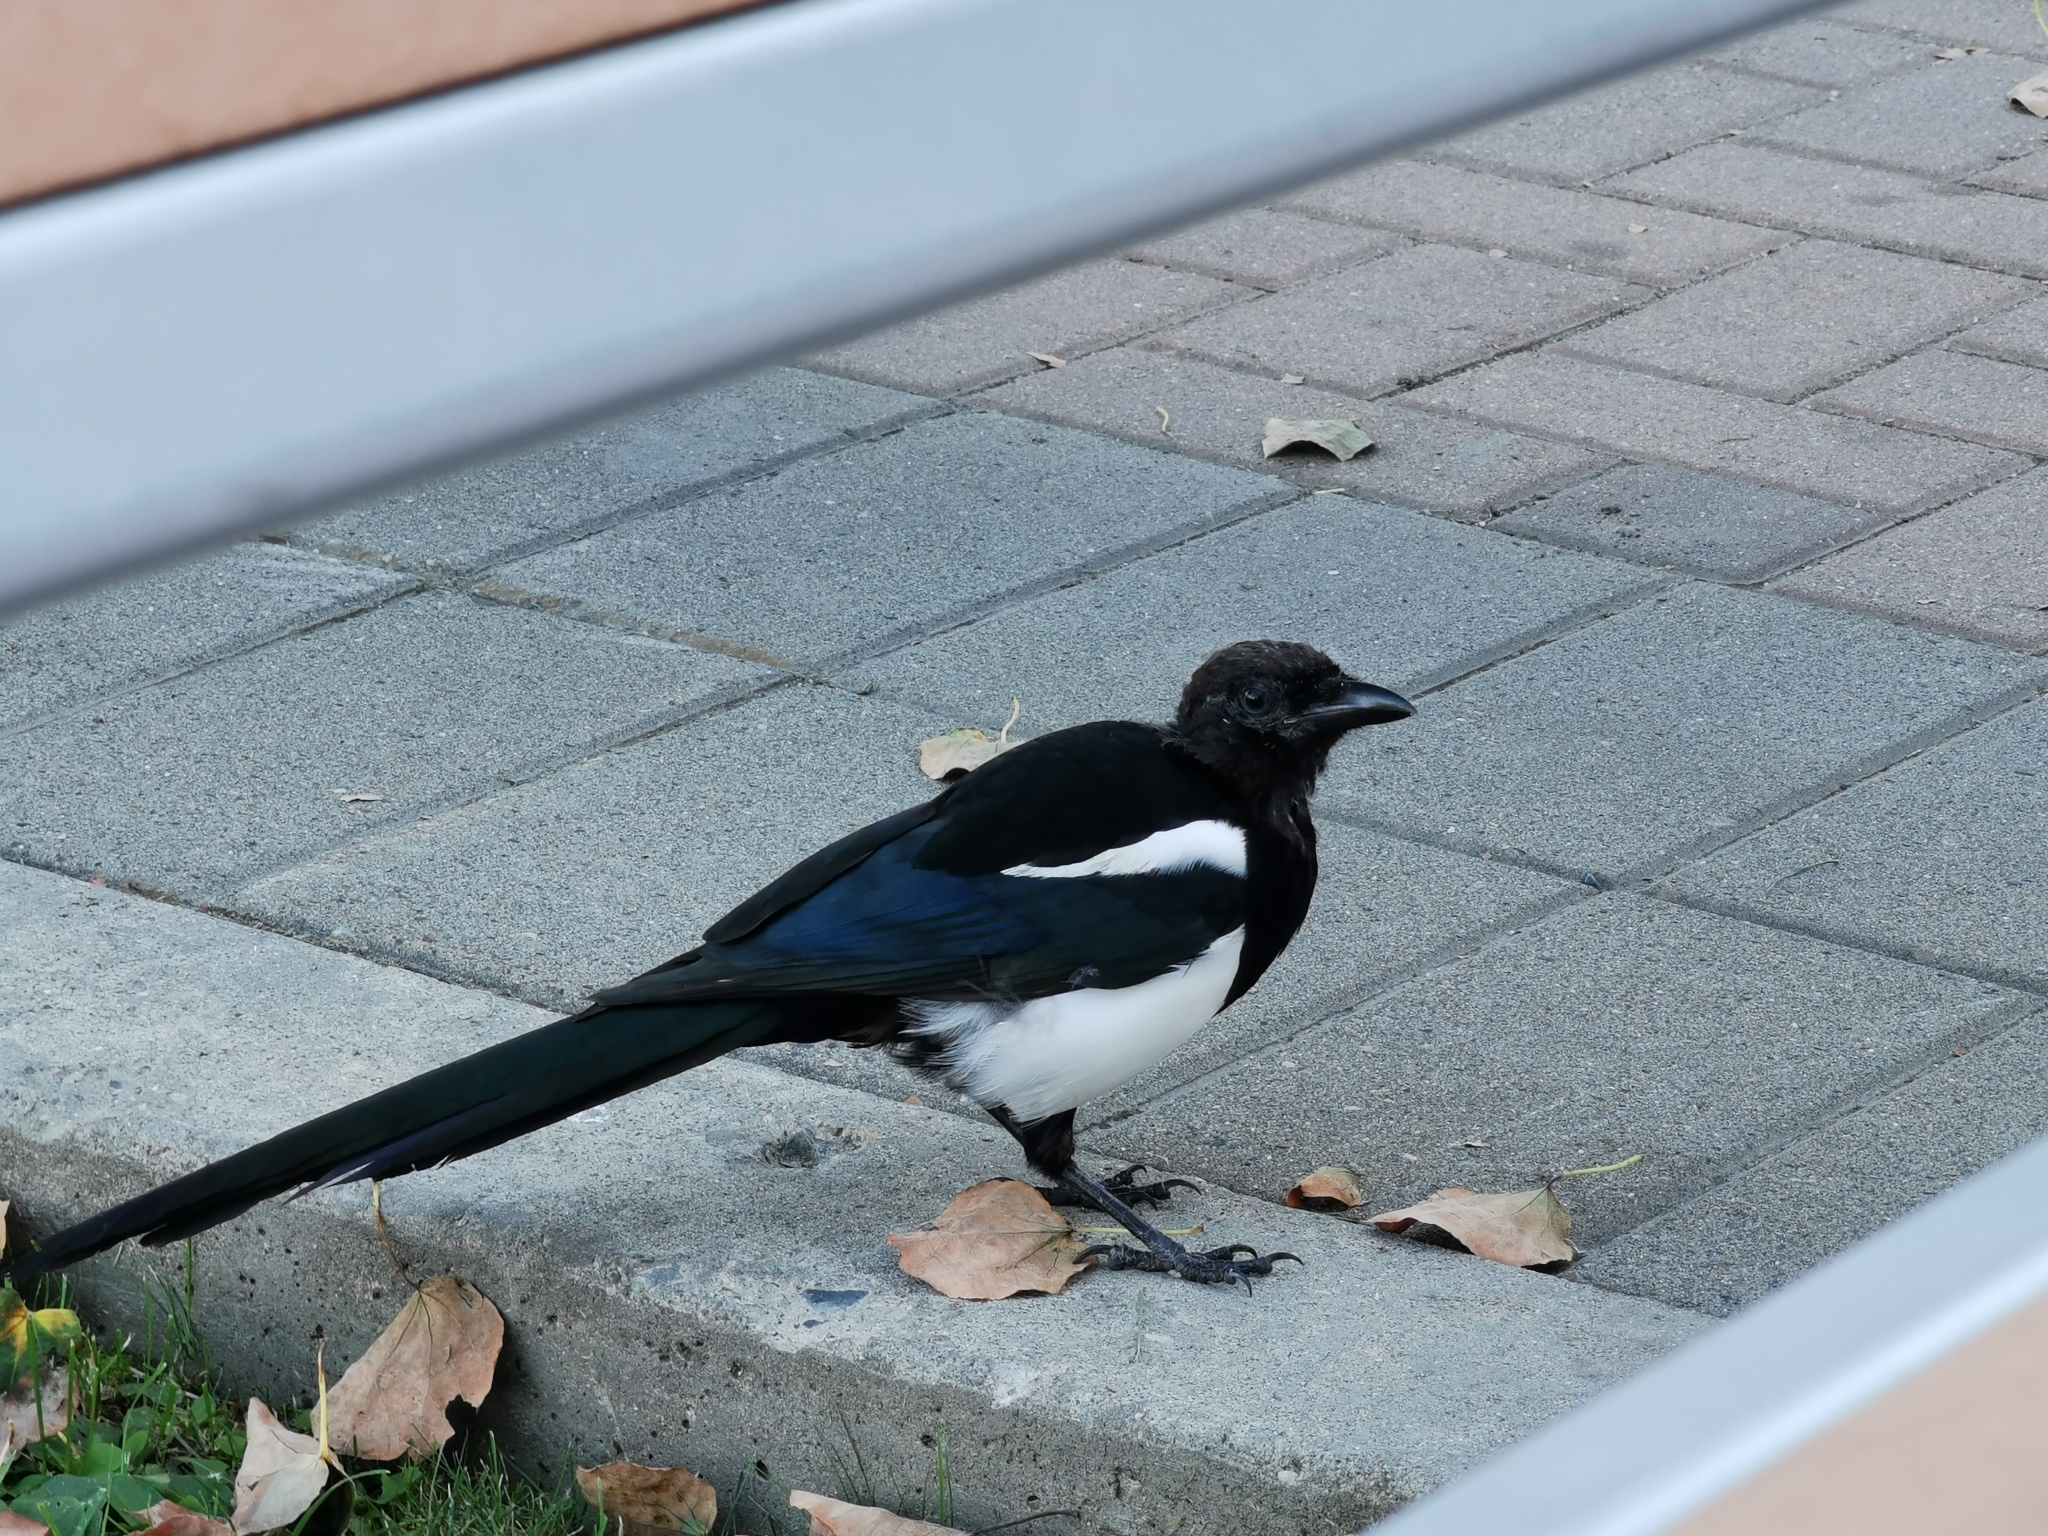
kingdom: Animalia
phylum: Chordata
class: Aves
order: Passeriformes
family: Corvidae
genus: Pica
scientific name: Pica hudsonia
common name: Black-billed magpie
